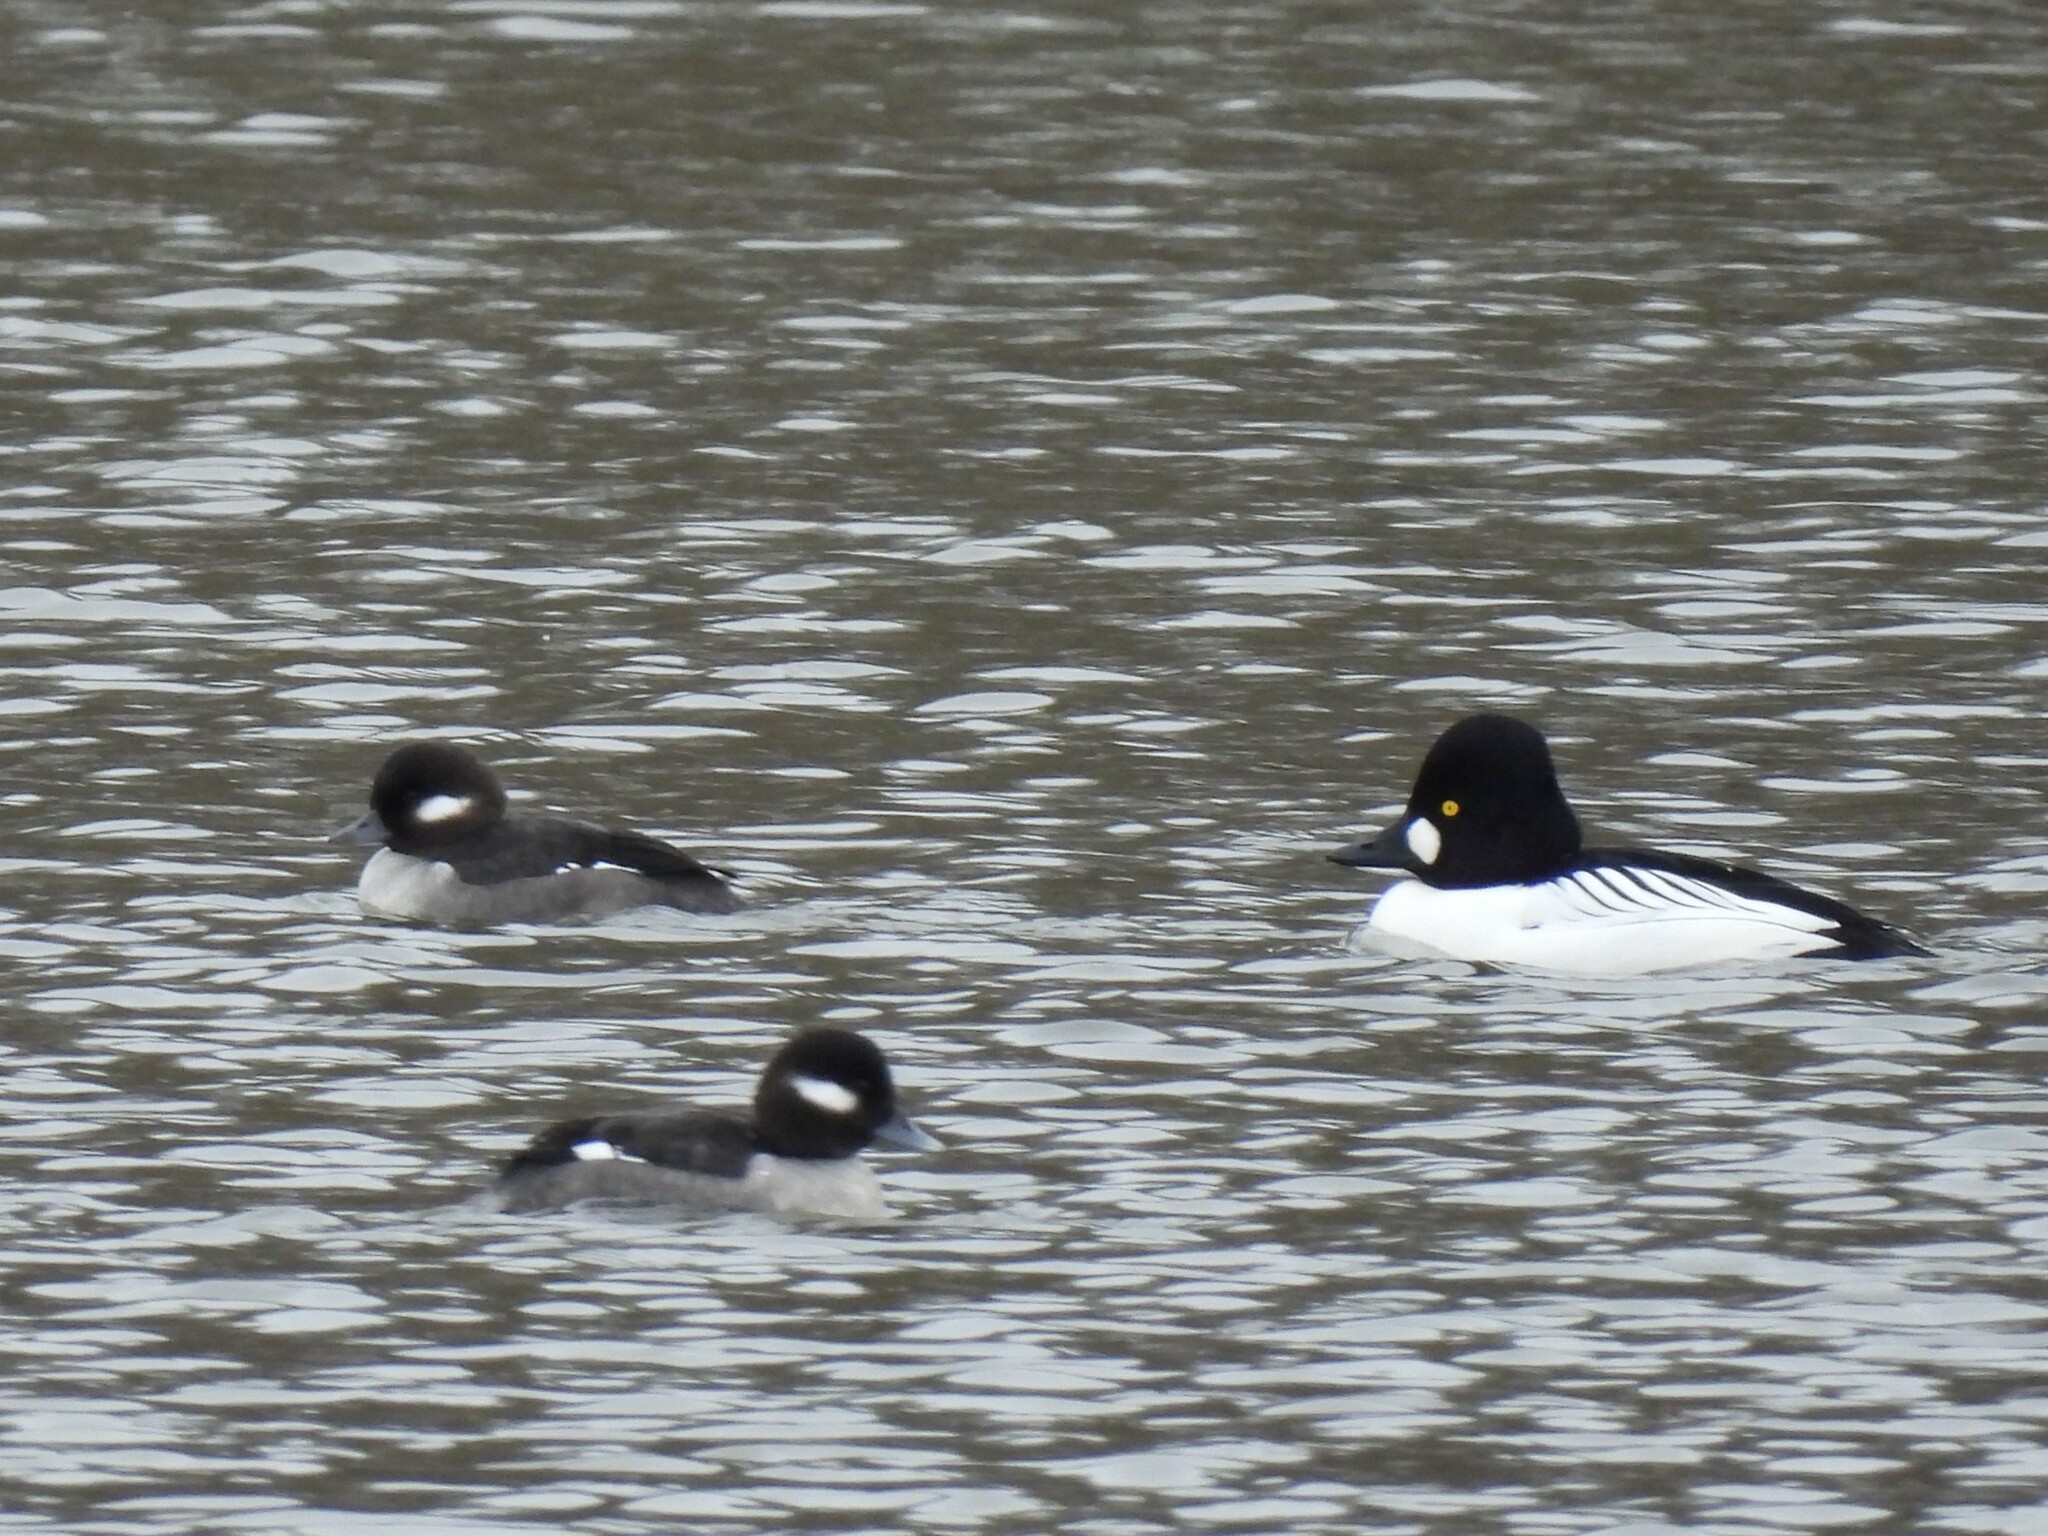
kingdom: Animalia
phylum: Chordata
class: Aves
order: Anseriformes
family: Anatidae
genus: Bucephala
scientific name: Bucephala clangula
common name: Common goldeneye
